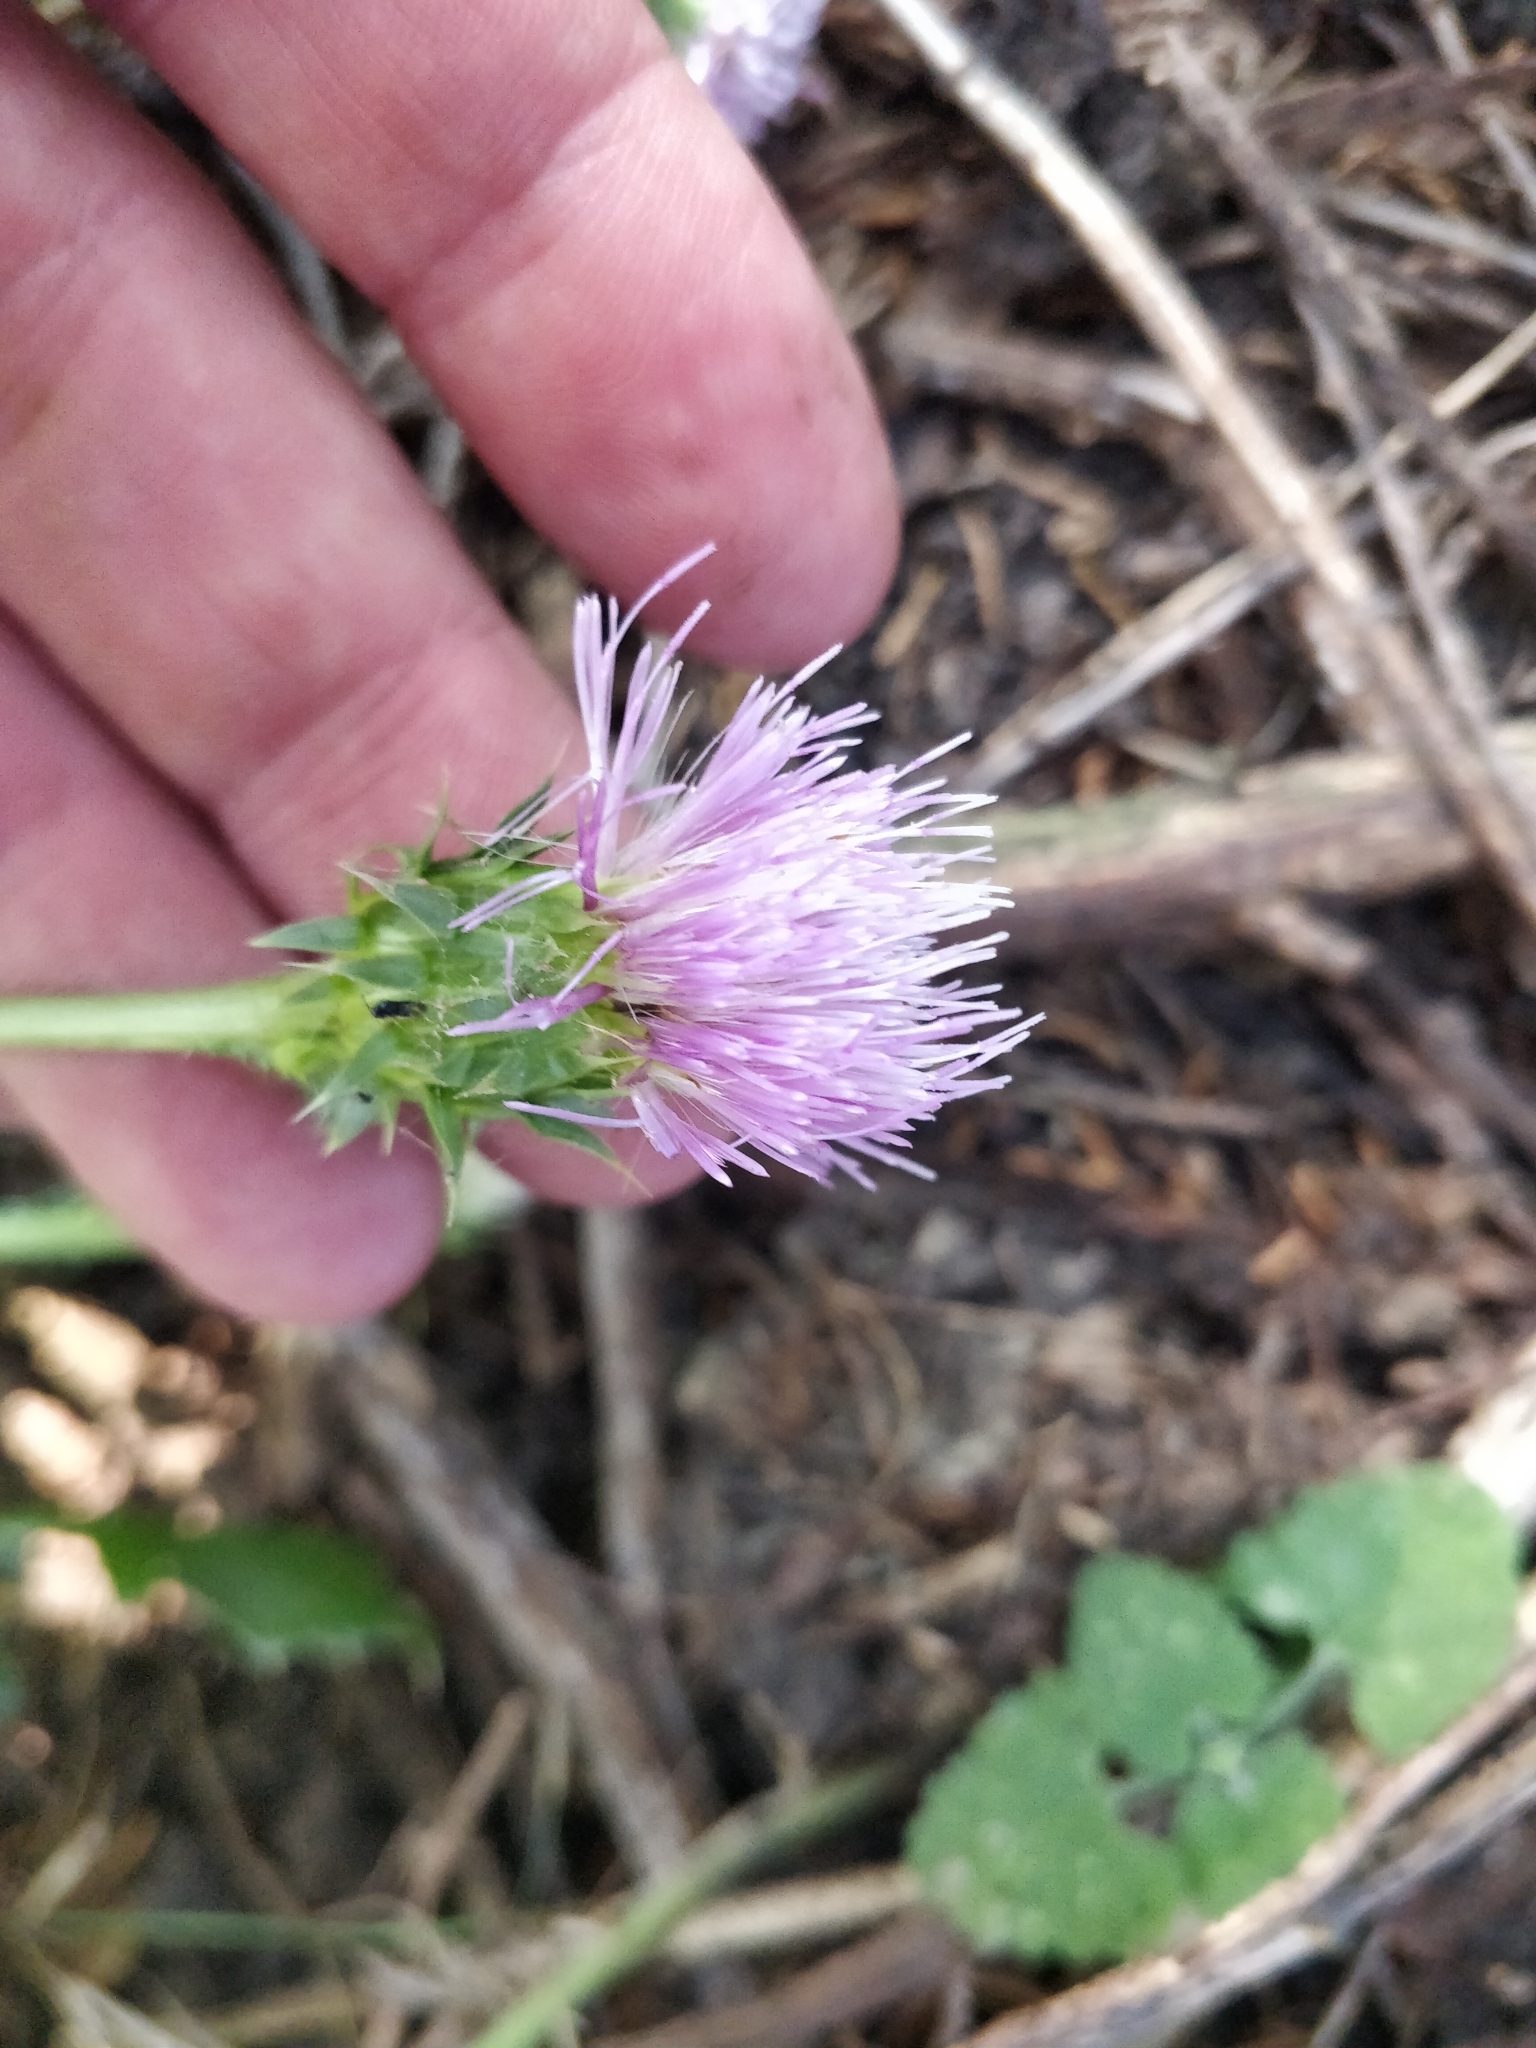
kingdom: Plantae
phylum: Tracheophyta
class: Magnoliopsida
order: Asterales
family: Asteraceae
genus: Carduus
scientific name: Carduus acanthoides
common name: Plumeless thistle
